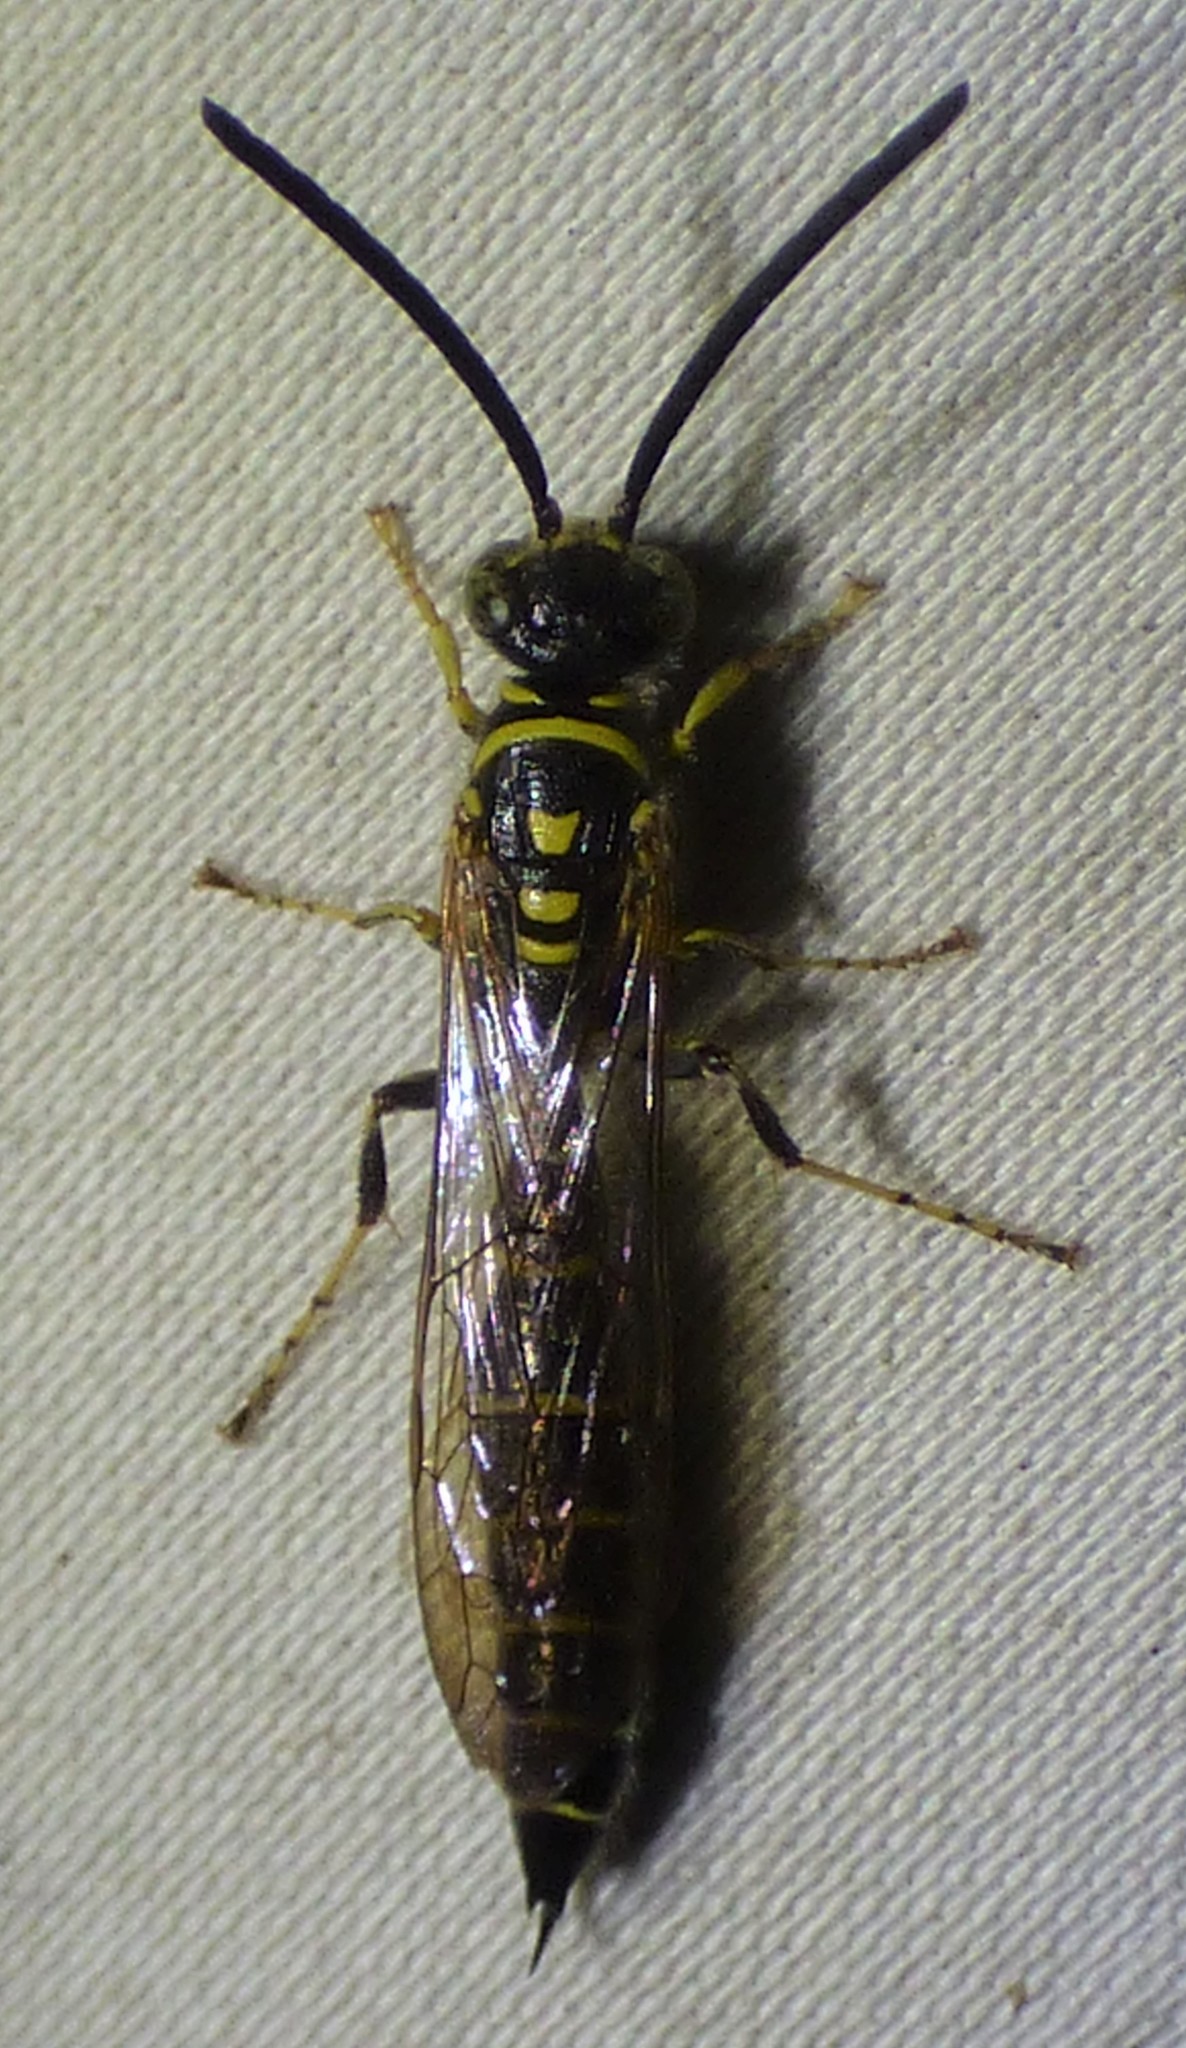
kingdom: Animalia
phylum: Arthropoda
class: Insecta
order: Hymenoptera
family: Tiphiidae
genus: Myzinum
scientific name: Myzinum
